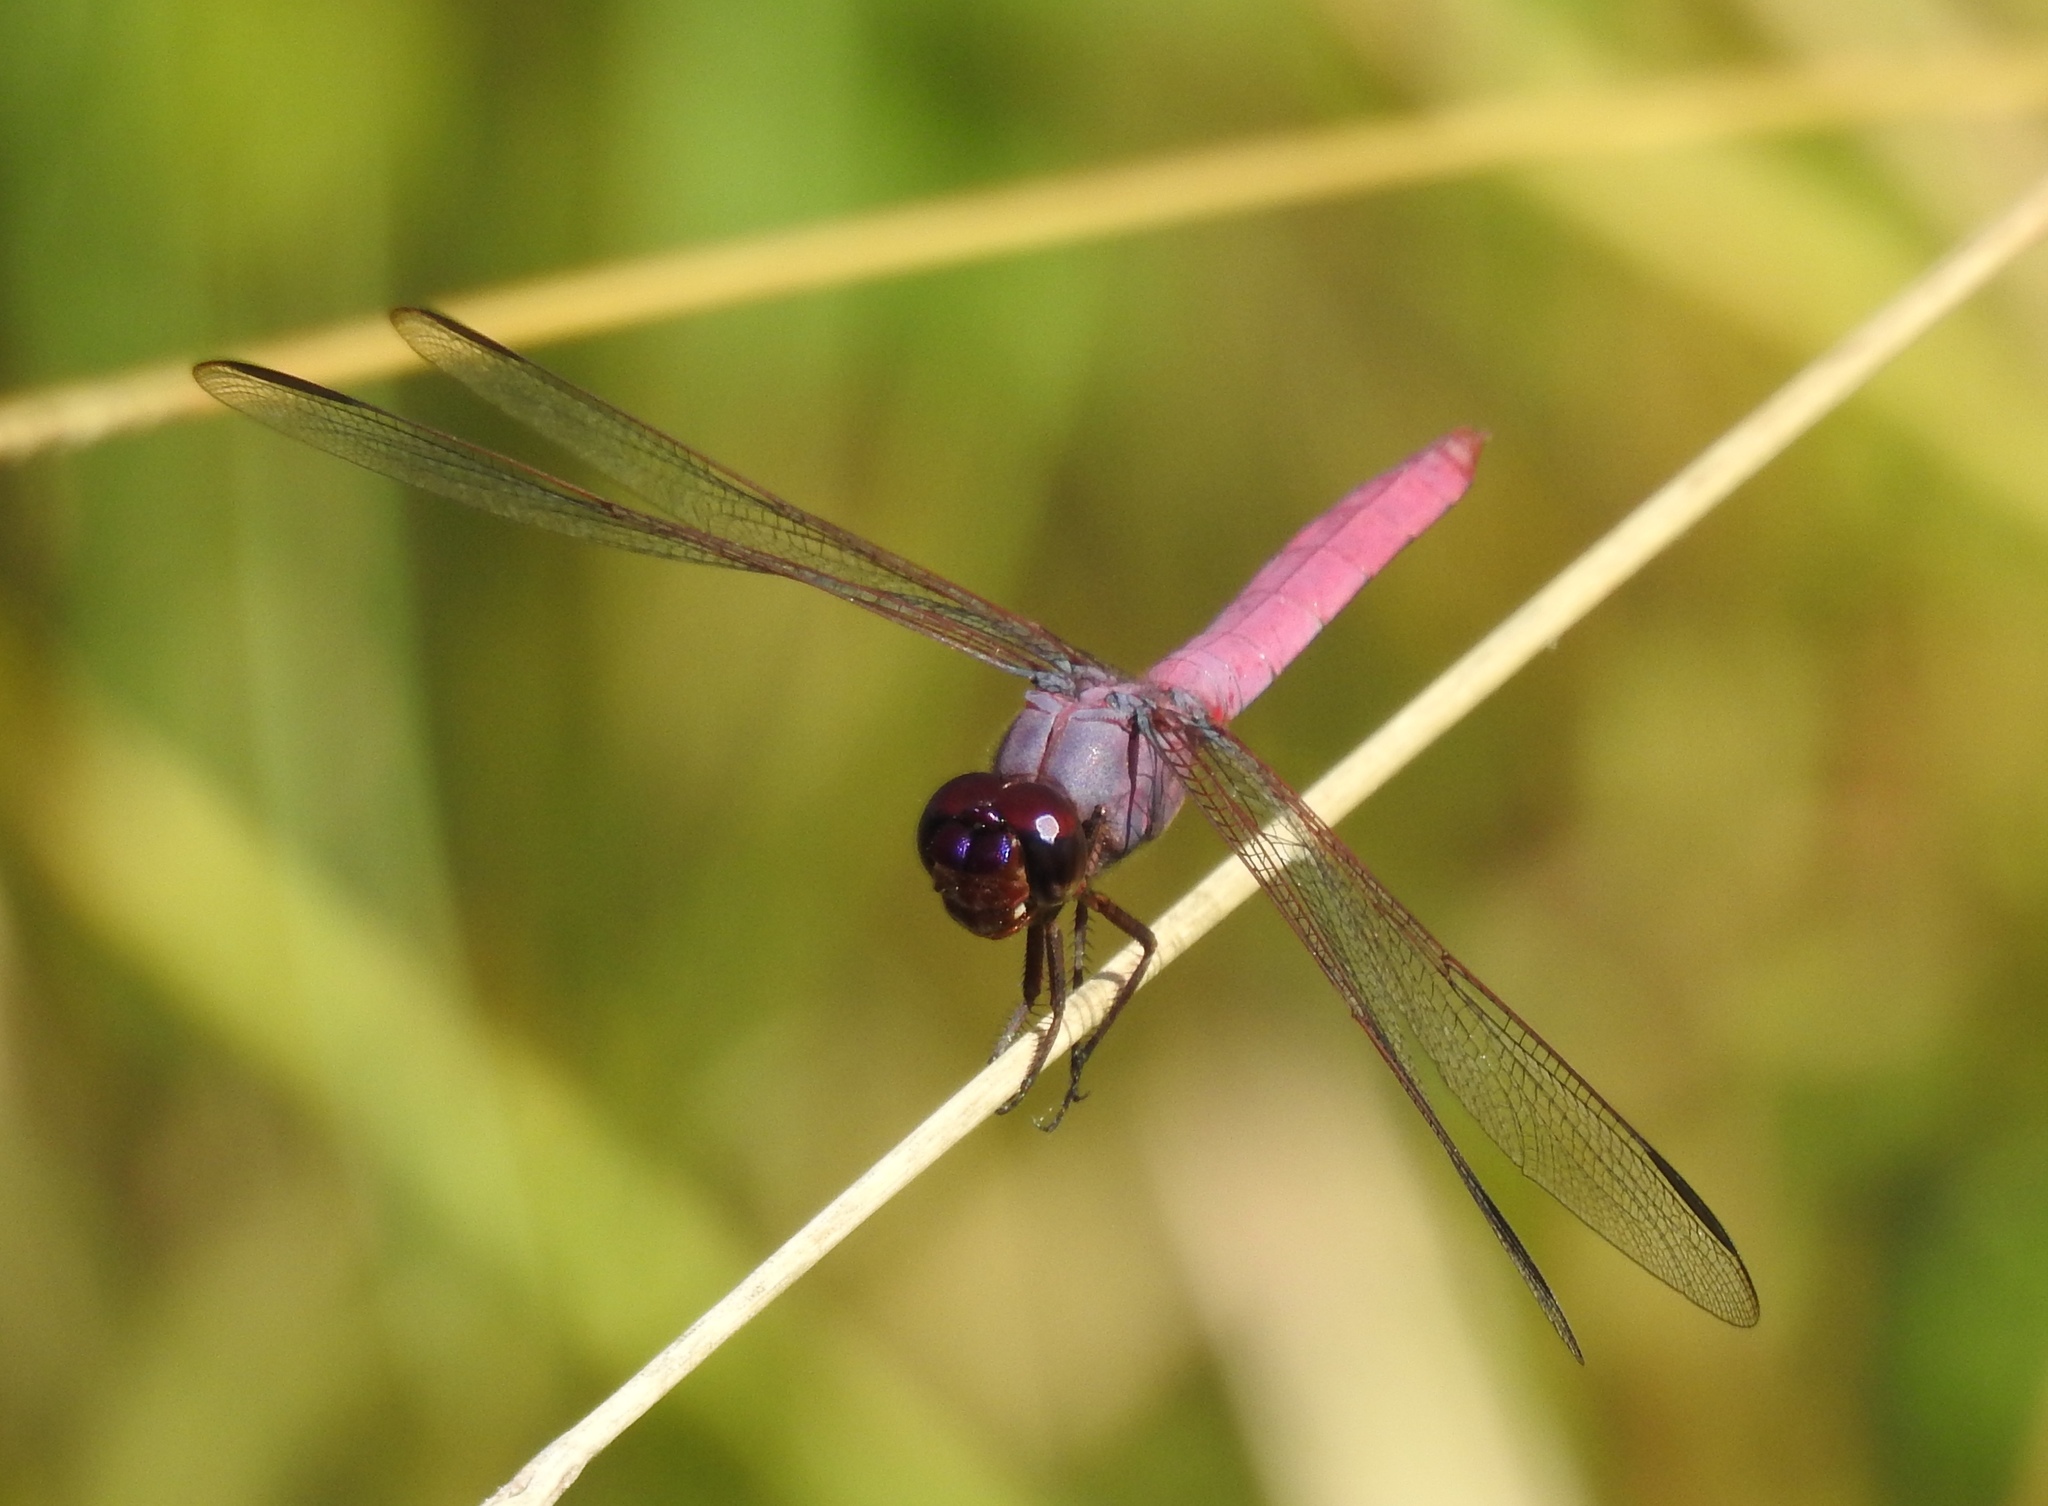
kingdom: Animalia
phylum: Arthropoda
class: Insecta
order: Odonata
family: Libellulidae
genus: Orthemis
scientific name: Orthemis ferruginea
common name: Roseate skimmer
